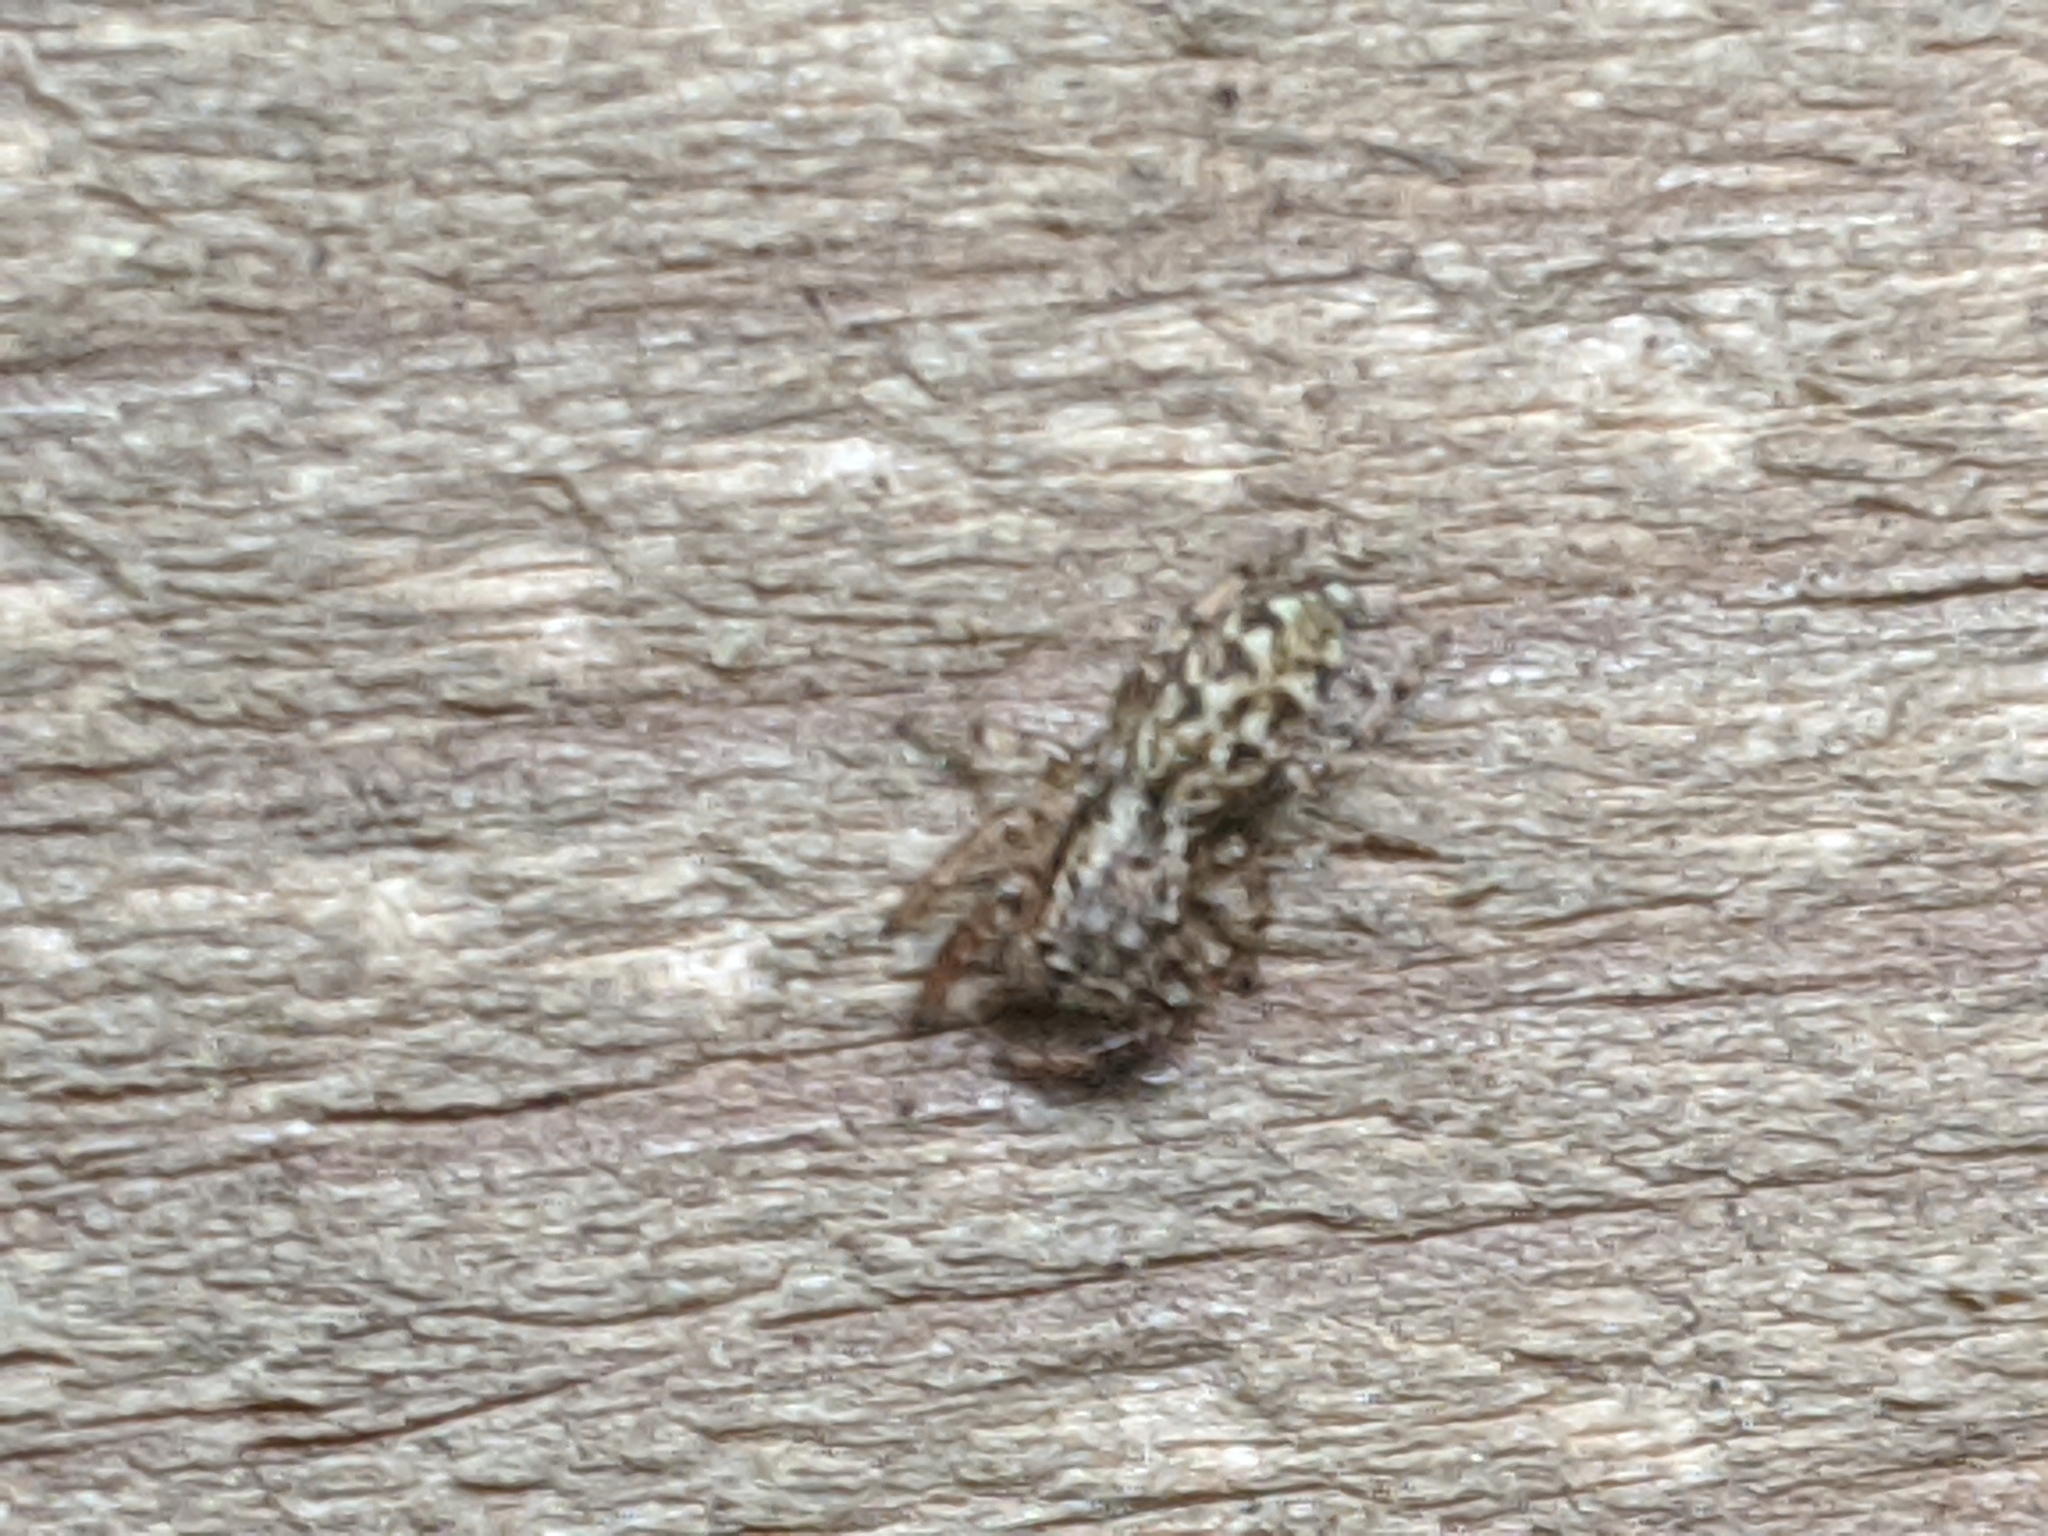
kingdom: Animalia
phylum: Arthropoda
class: Arachnida
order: Araneae
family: Salticidae
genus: Marpissa
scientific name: Marpissa muscosa
